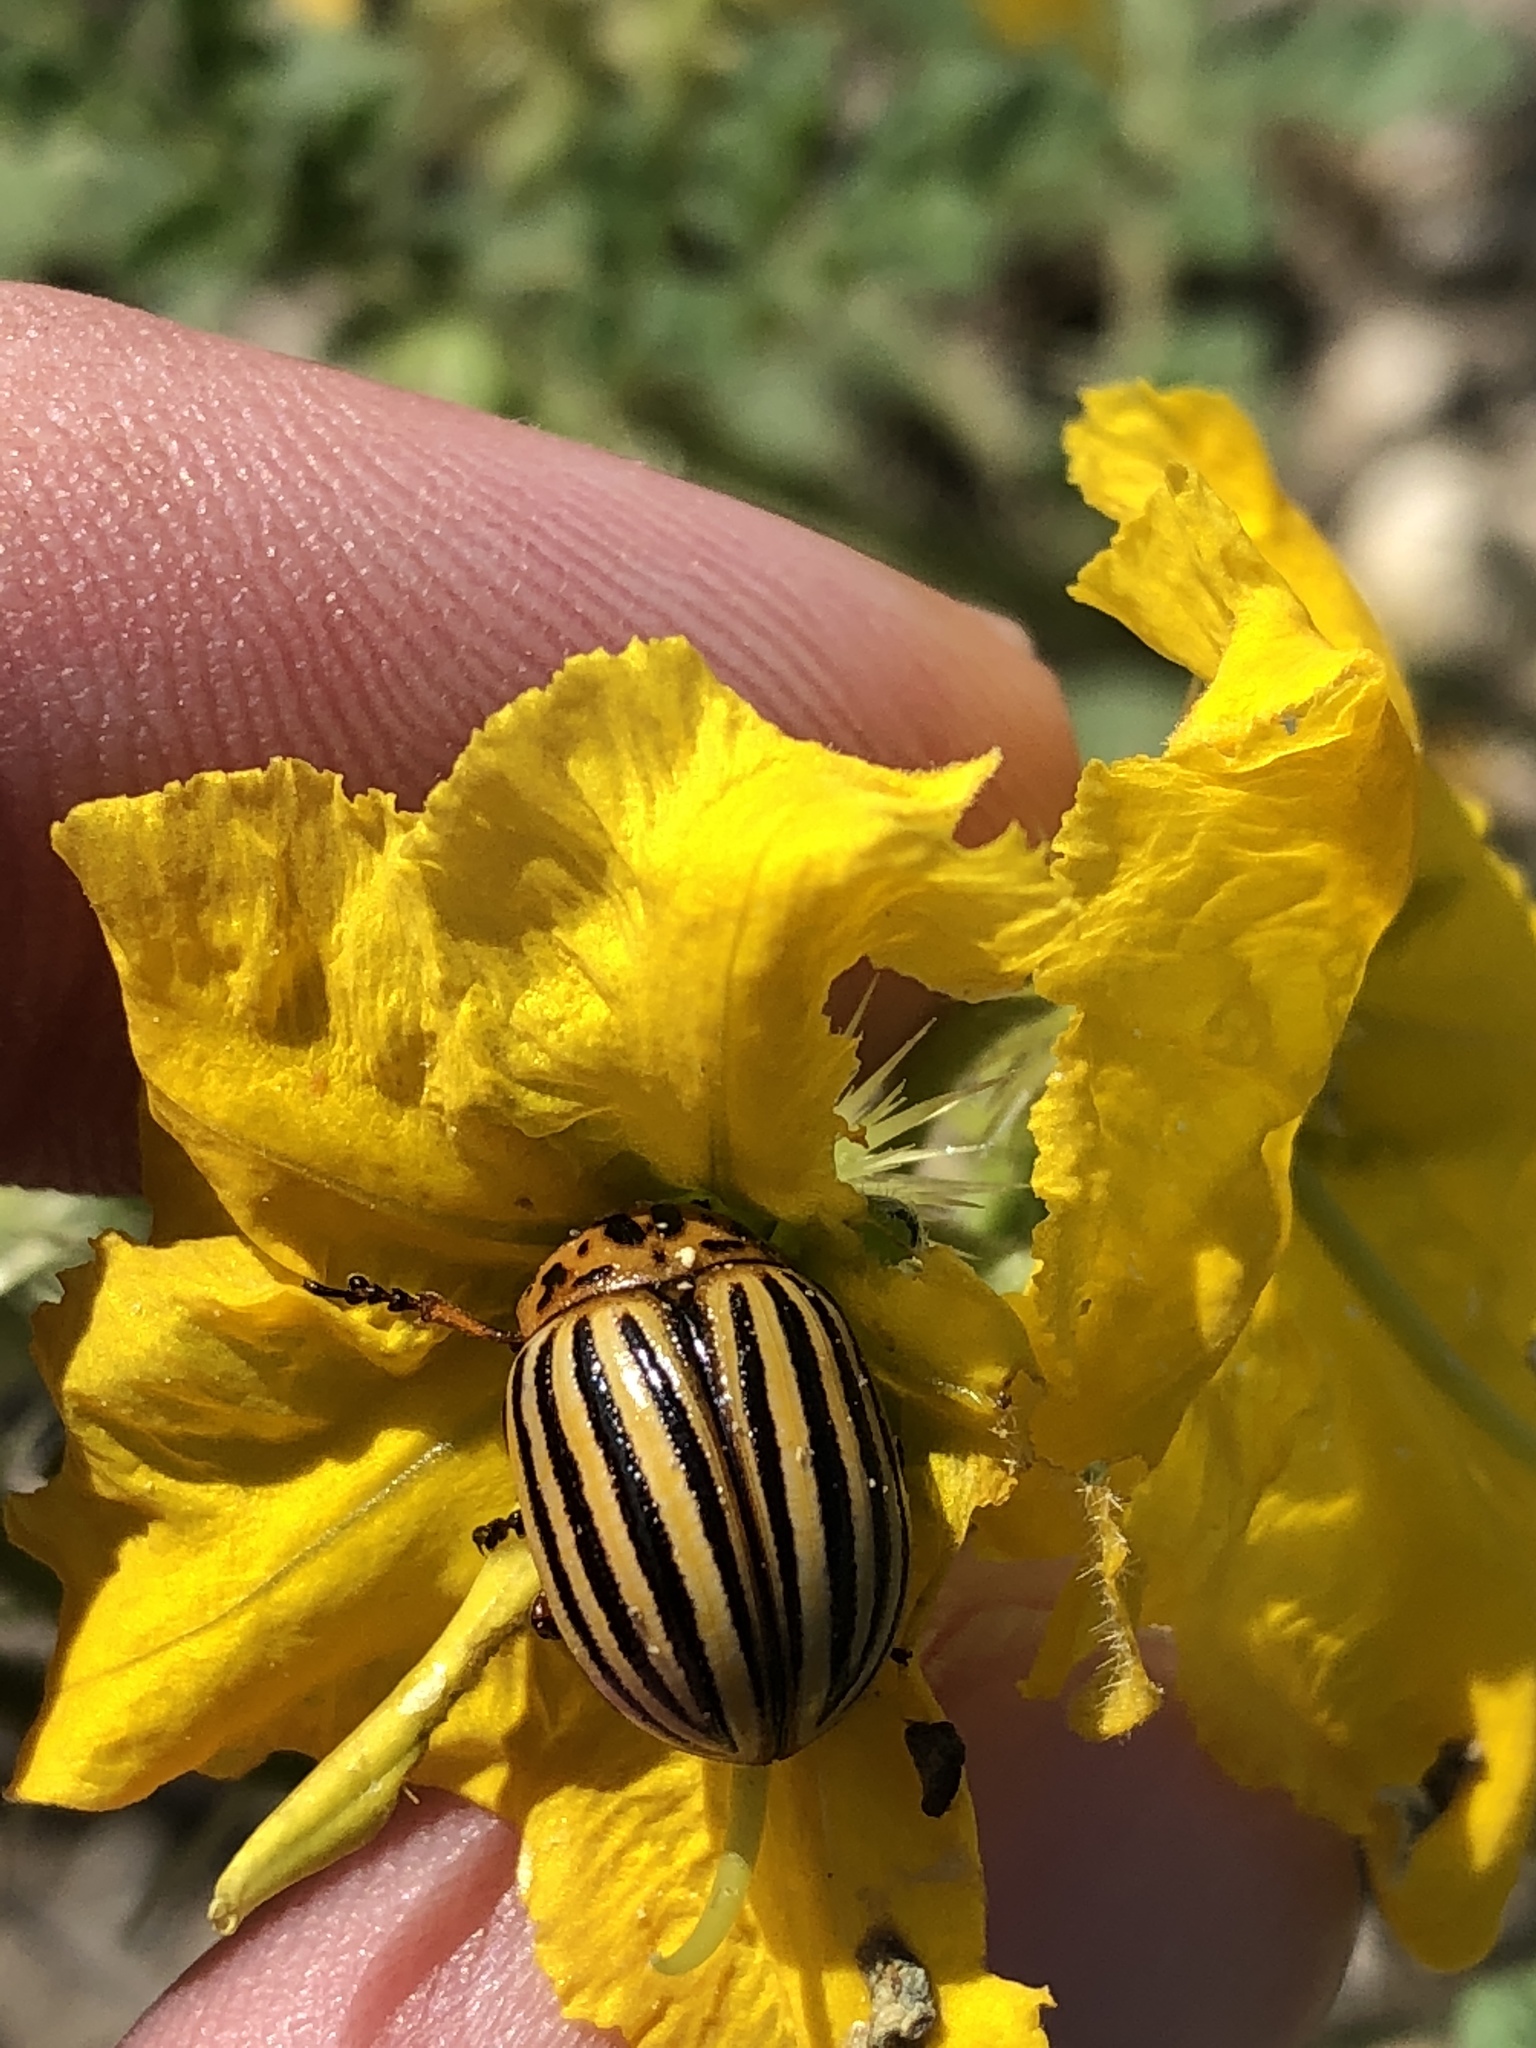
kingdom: Animalia
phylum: Arthropoda
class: Insecta
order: Coleoptera
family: Chrysomelidae
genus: Leptinotarsa
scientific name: Leptinotarsa decemlineata
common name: Colorado potato beetle
